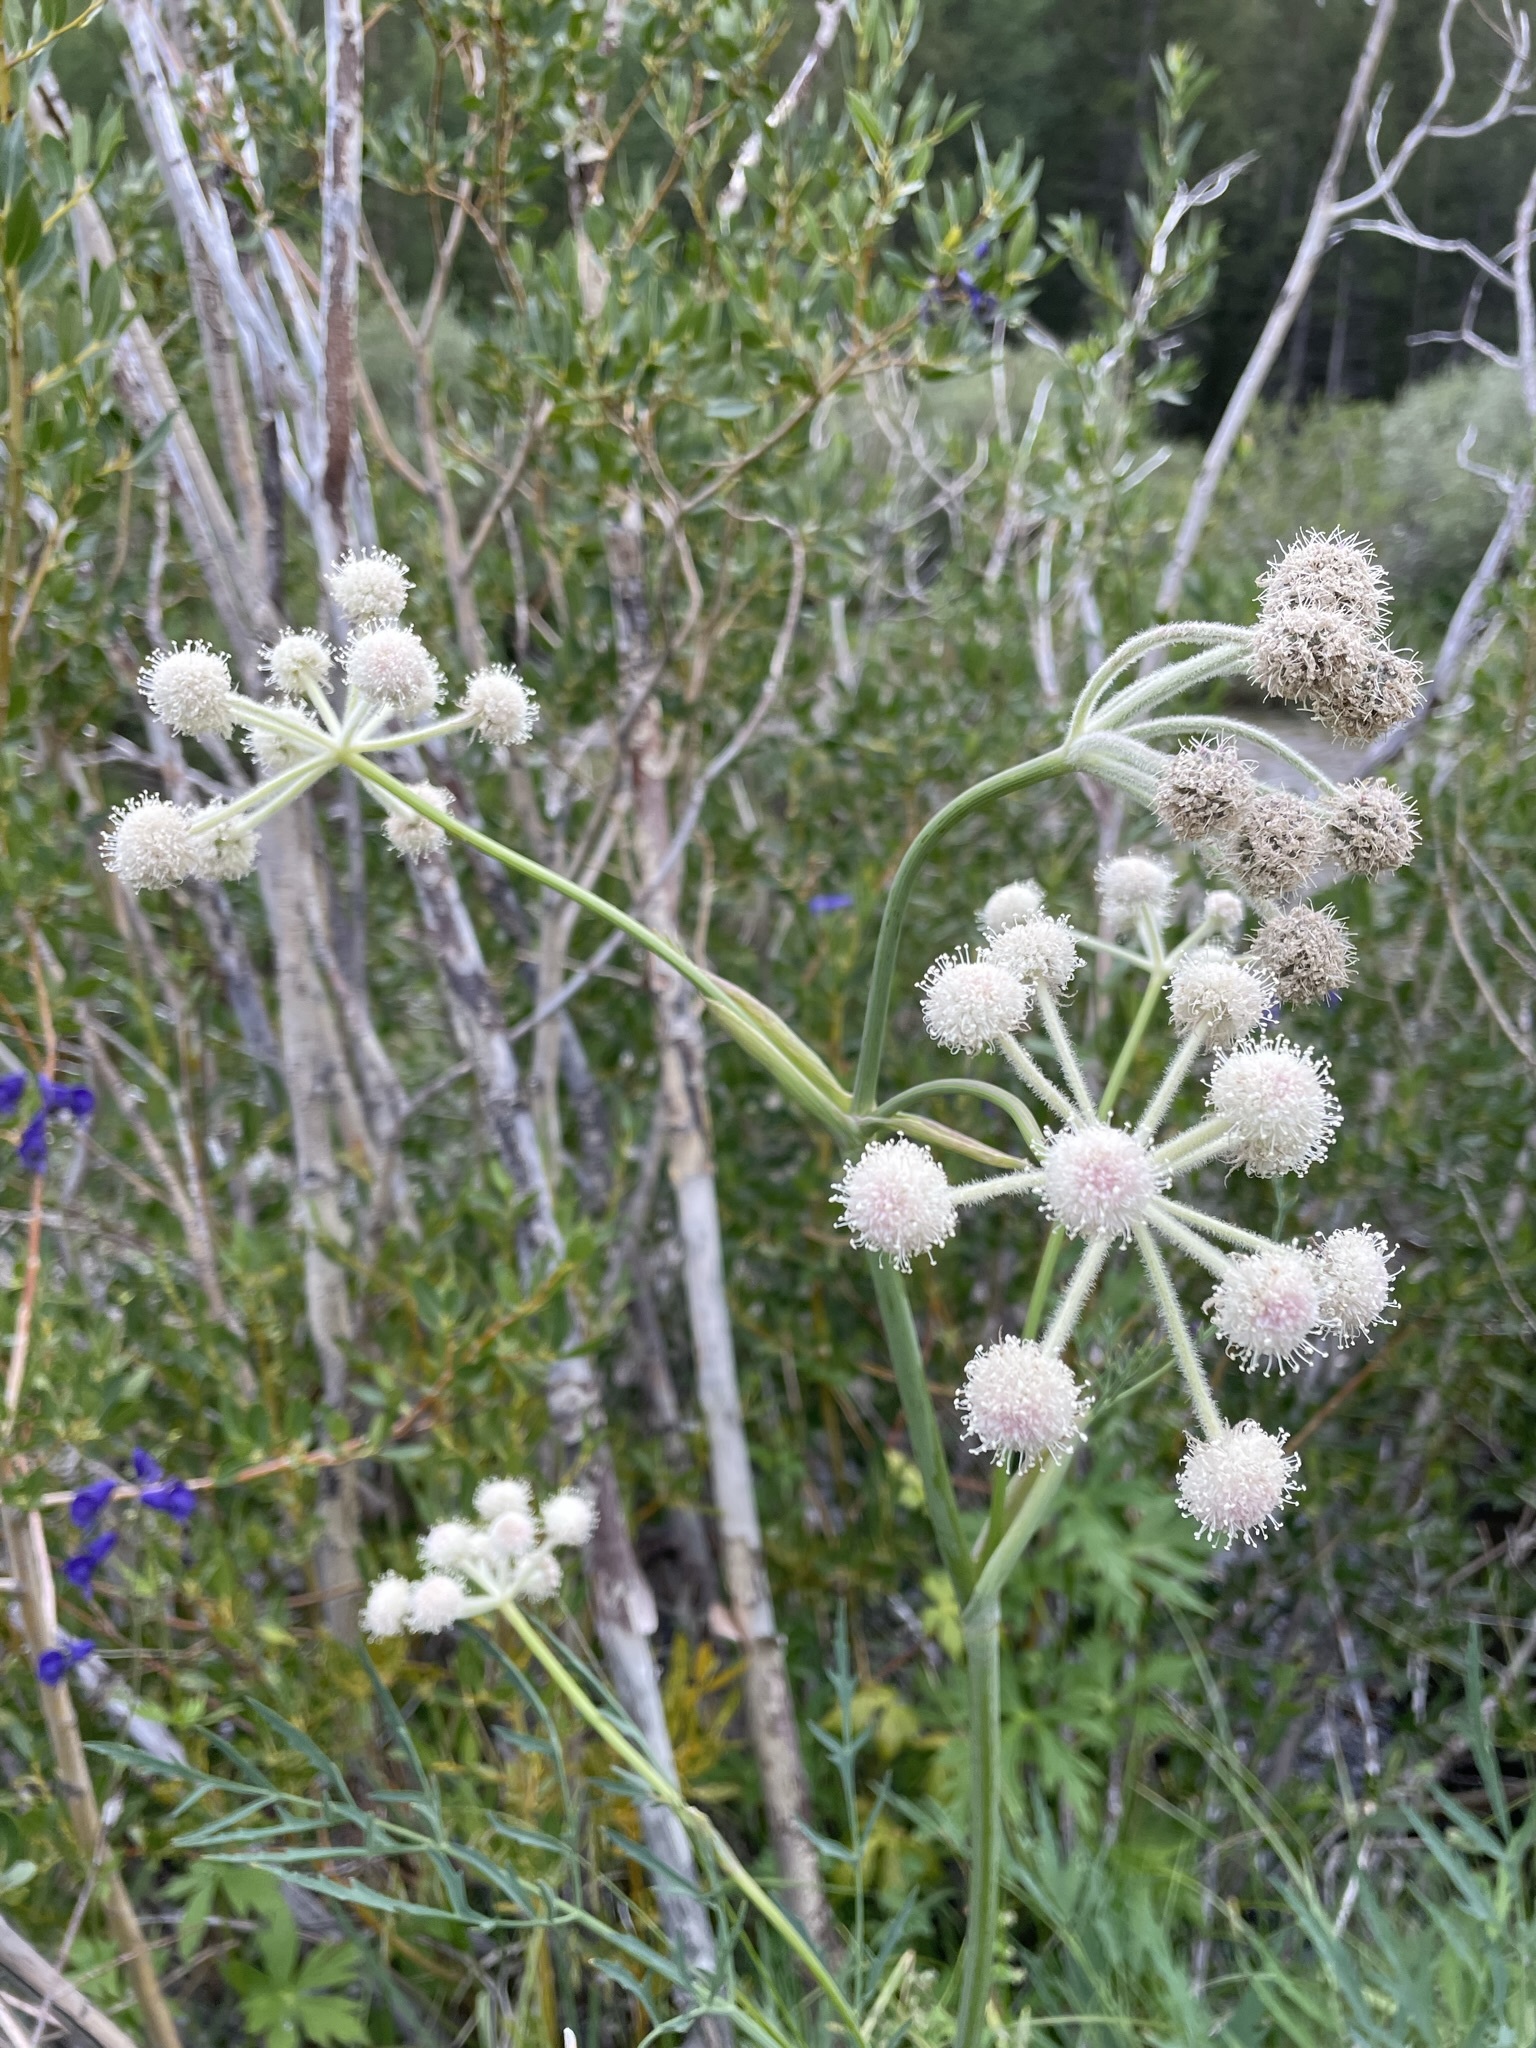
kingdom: Plantae
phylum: Tracheophyta
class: Magnoliopsida
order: Apiales
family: Apiaceae
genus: Angelica
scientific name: Angelica capitellata
